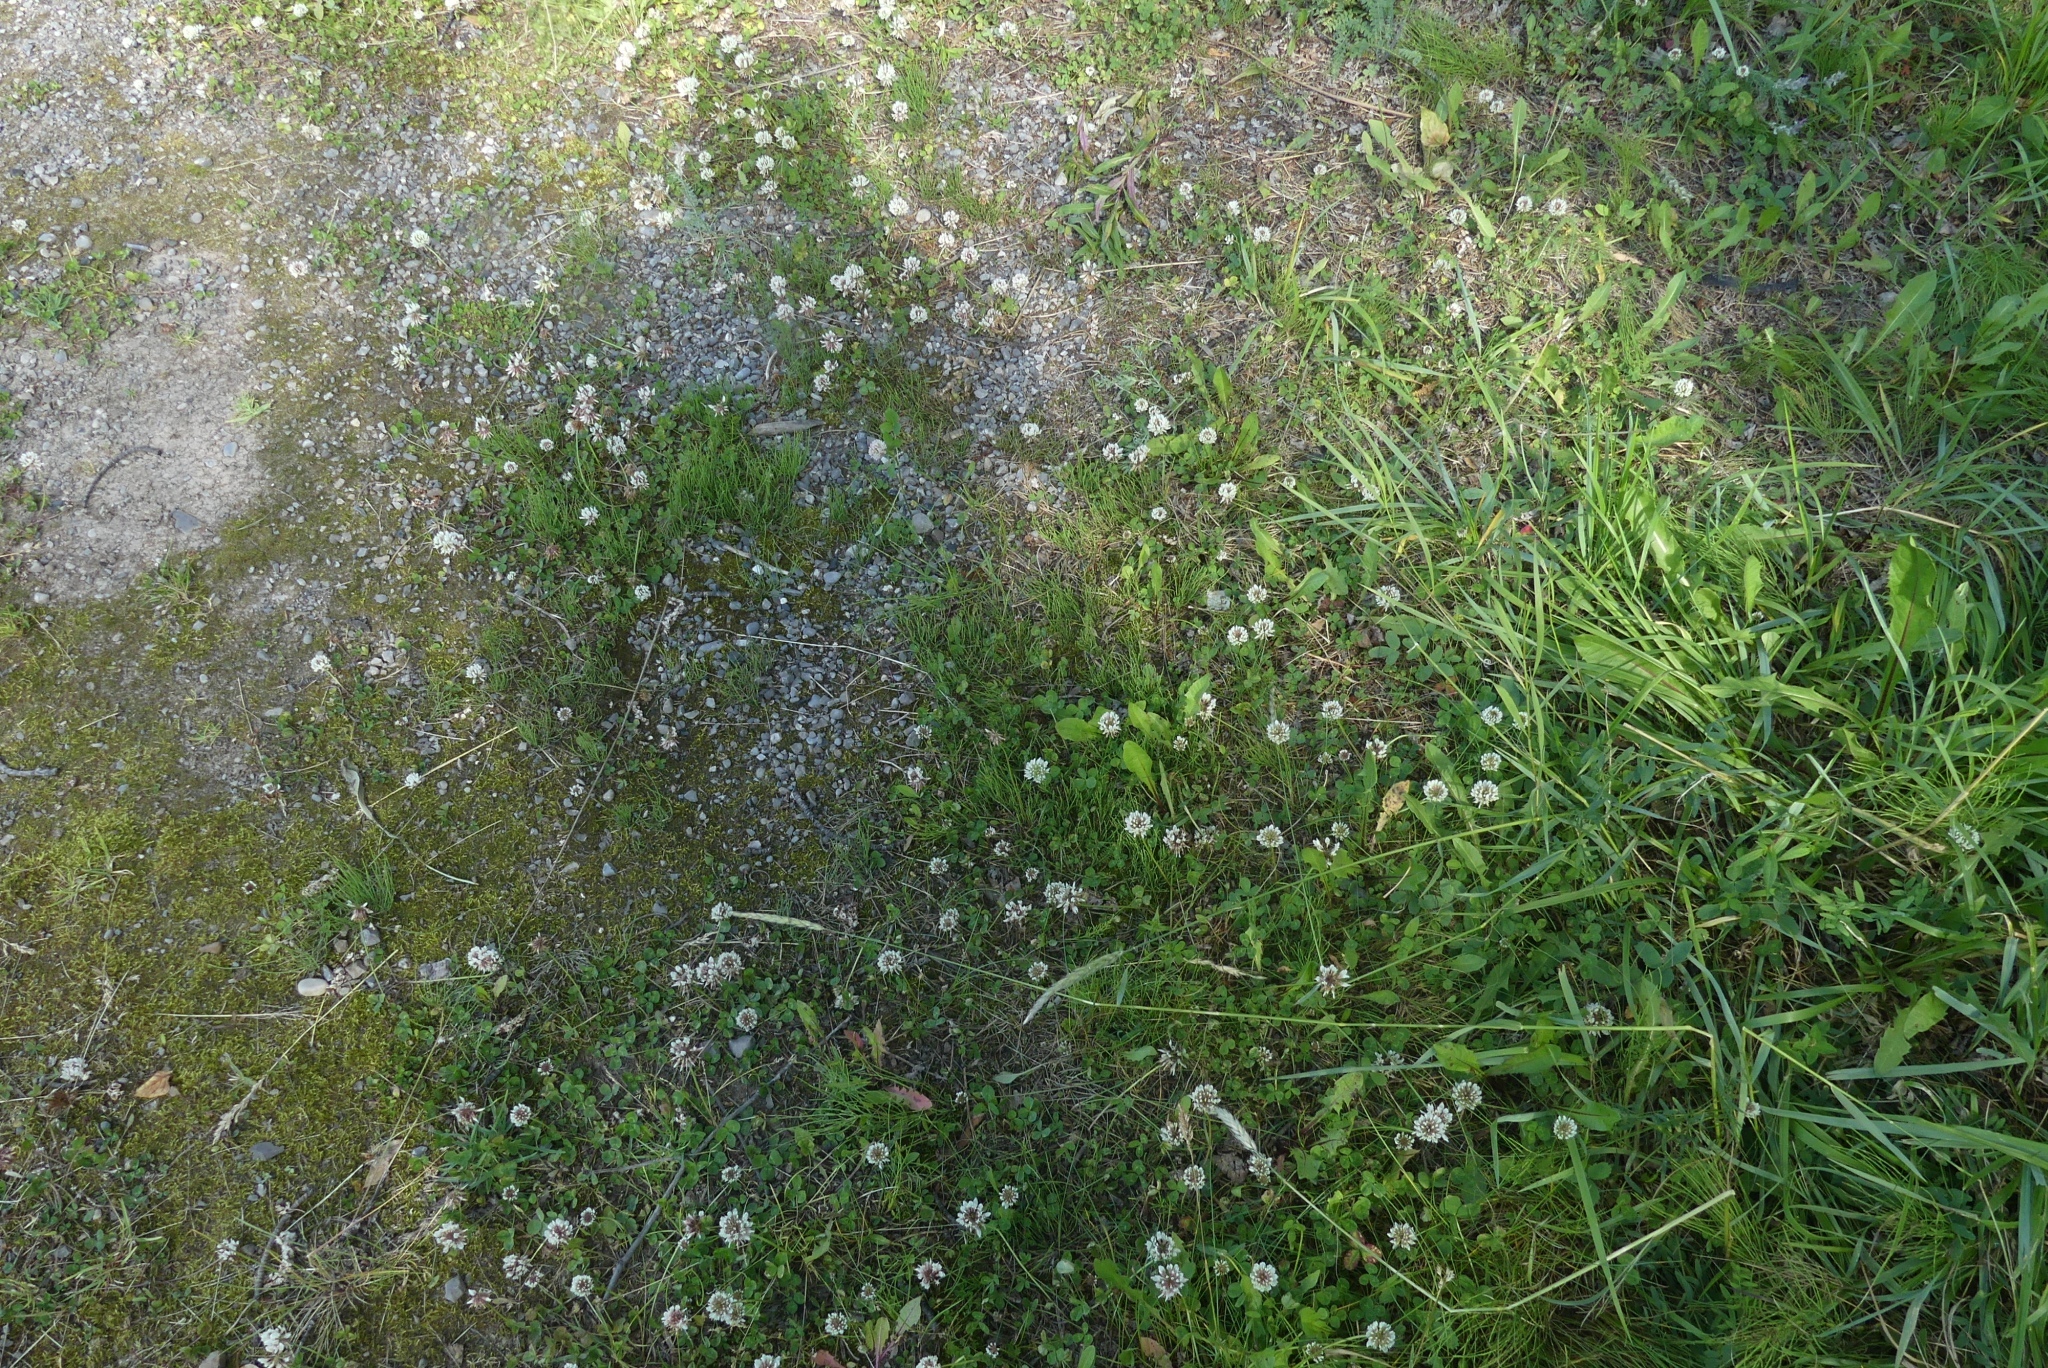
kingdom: Plantae
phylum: Tracheophyta
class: Magnoliopsida
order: Fabales
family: Fabaceae
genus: Trifolium
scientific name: Trifolium repens
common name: White clover
